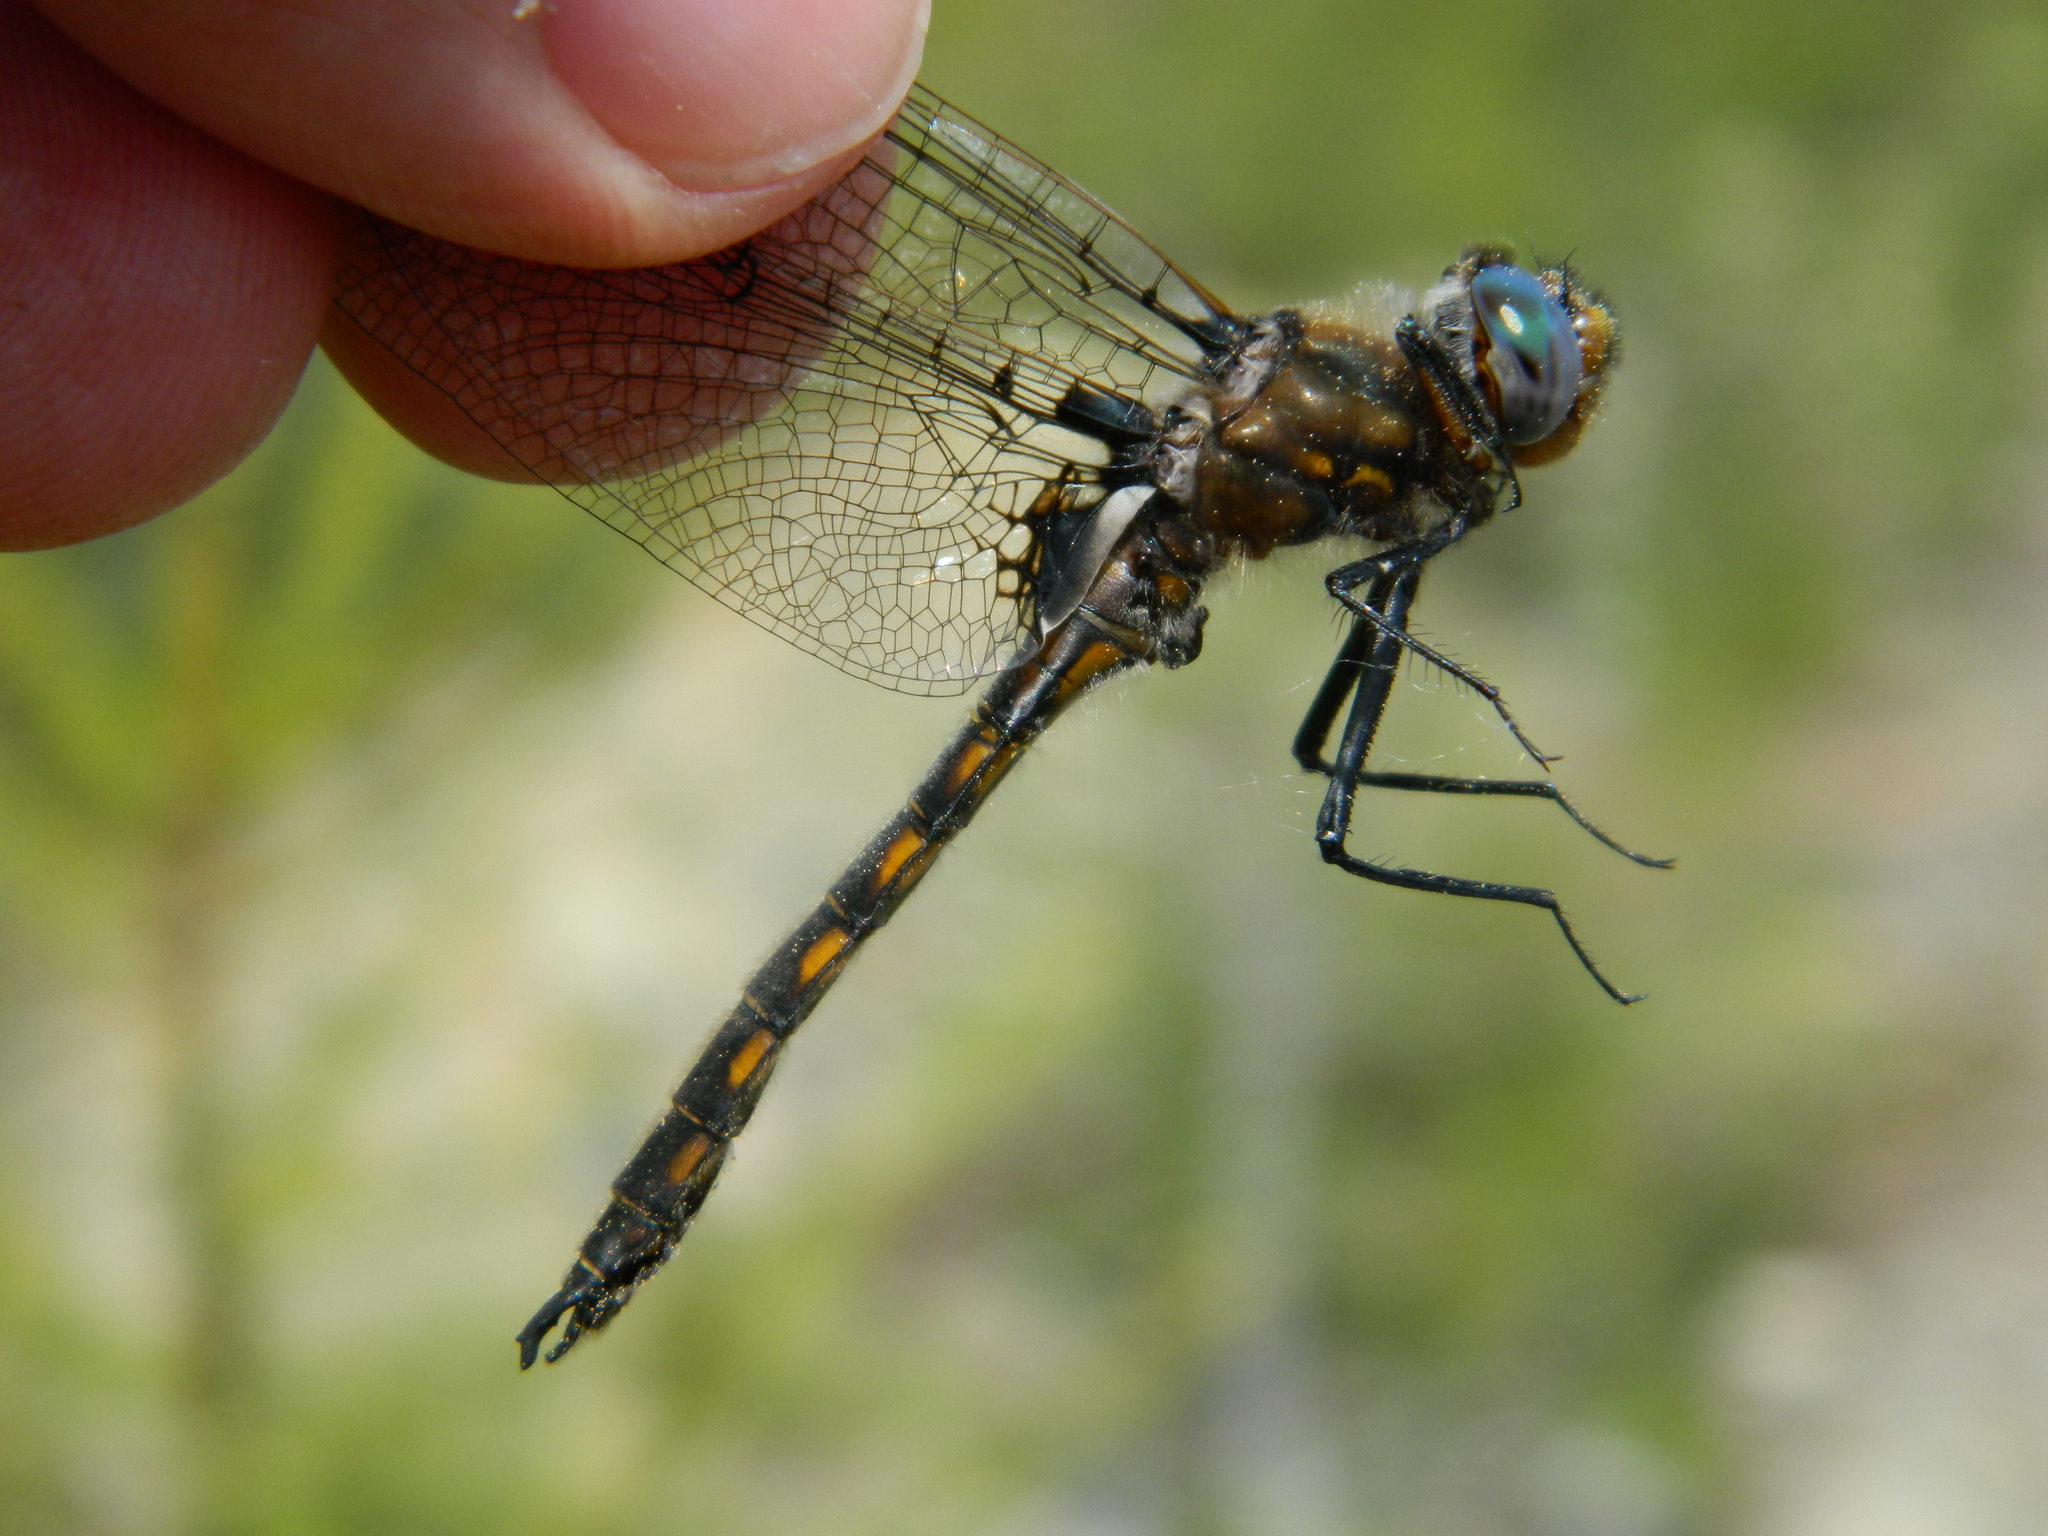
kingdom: Animalia
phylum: Arthropoda
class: Insecta
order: Odonata
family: Corduliidae
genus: Epitheca
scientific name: Epitheca canis
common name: Beaverpond baskettail
